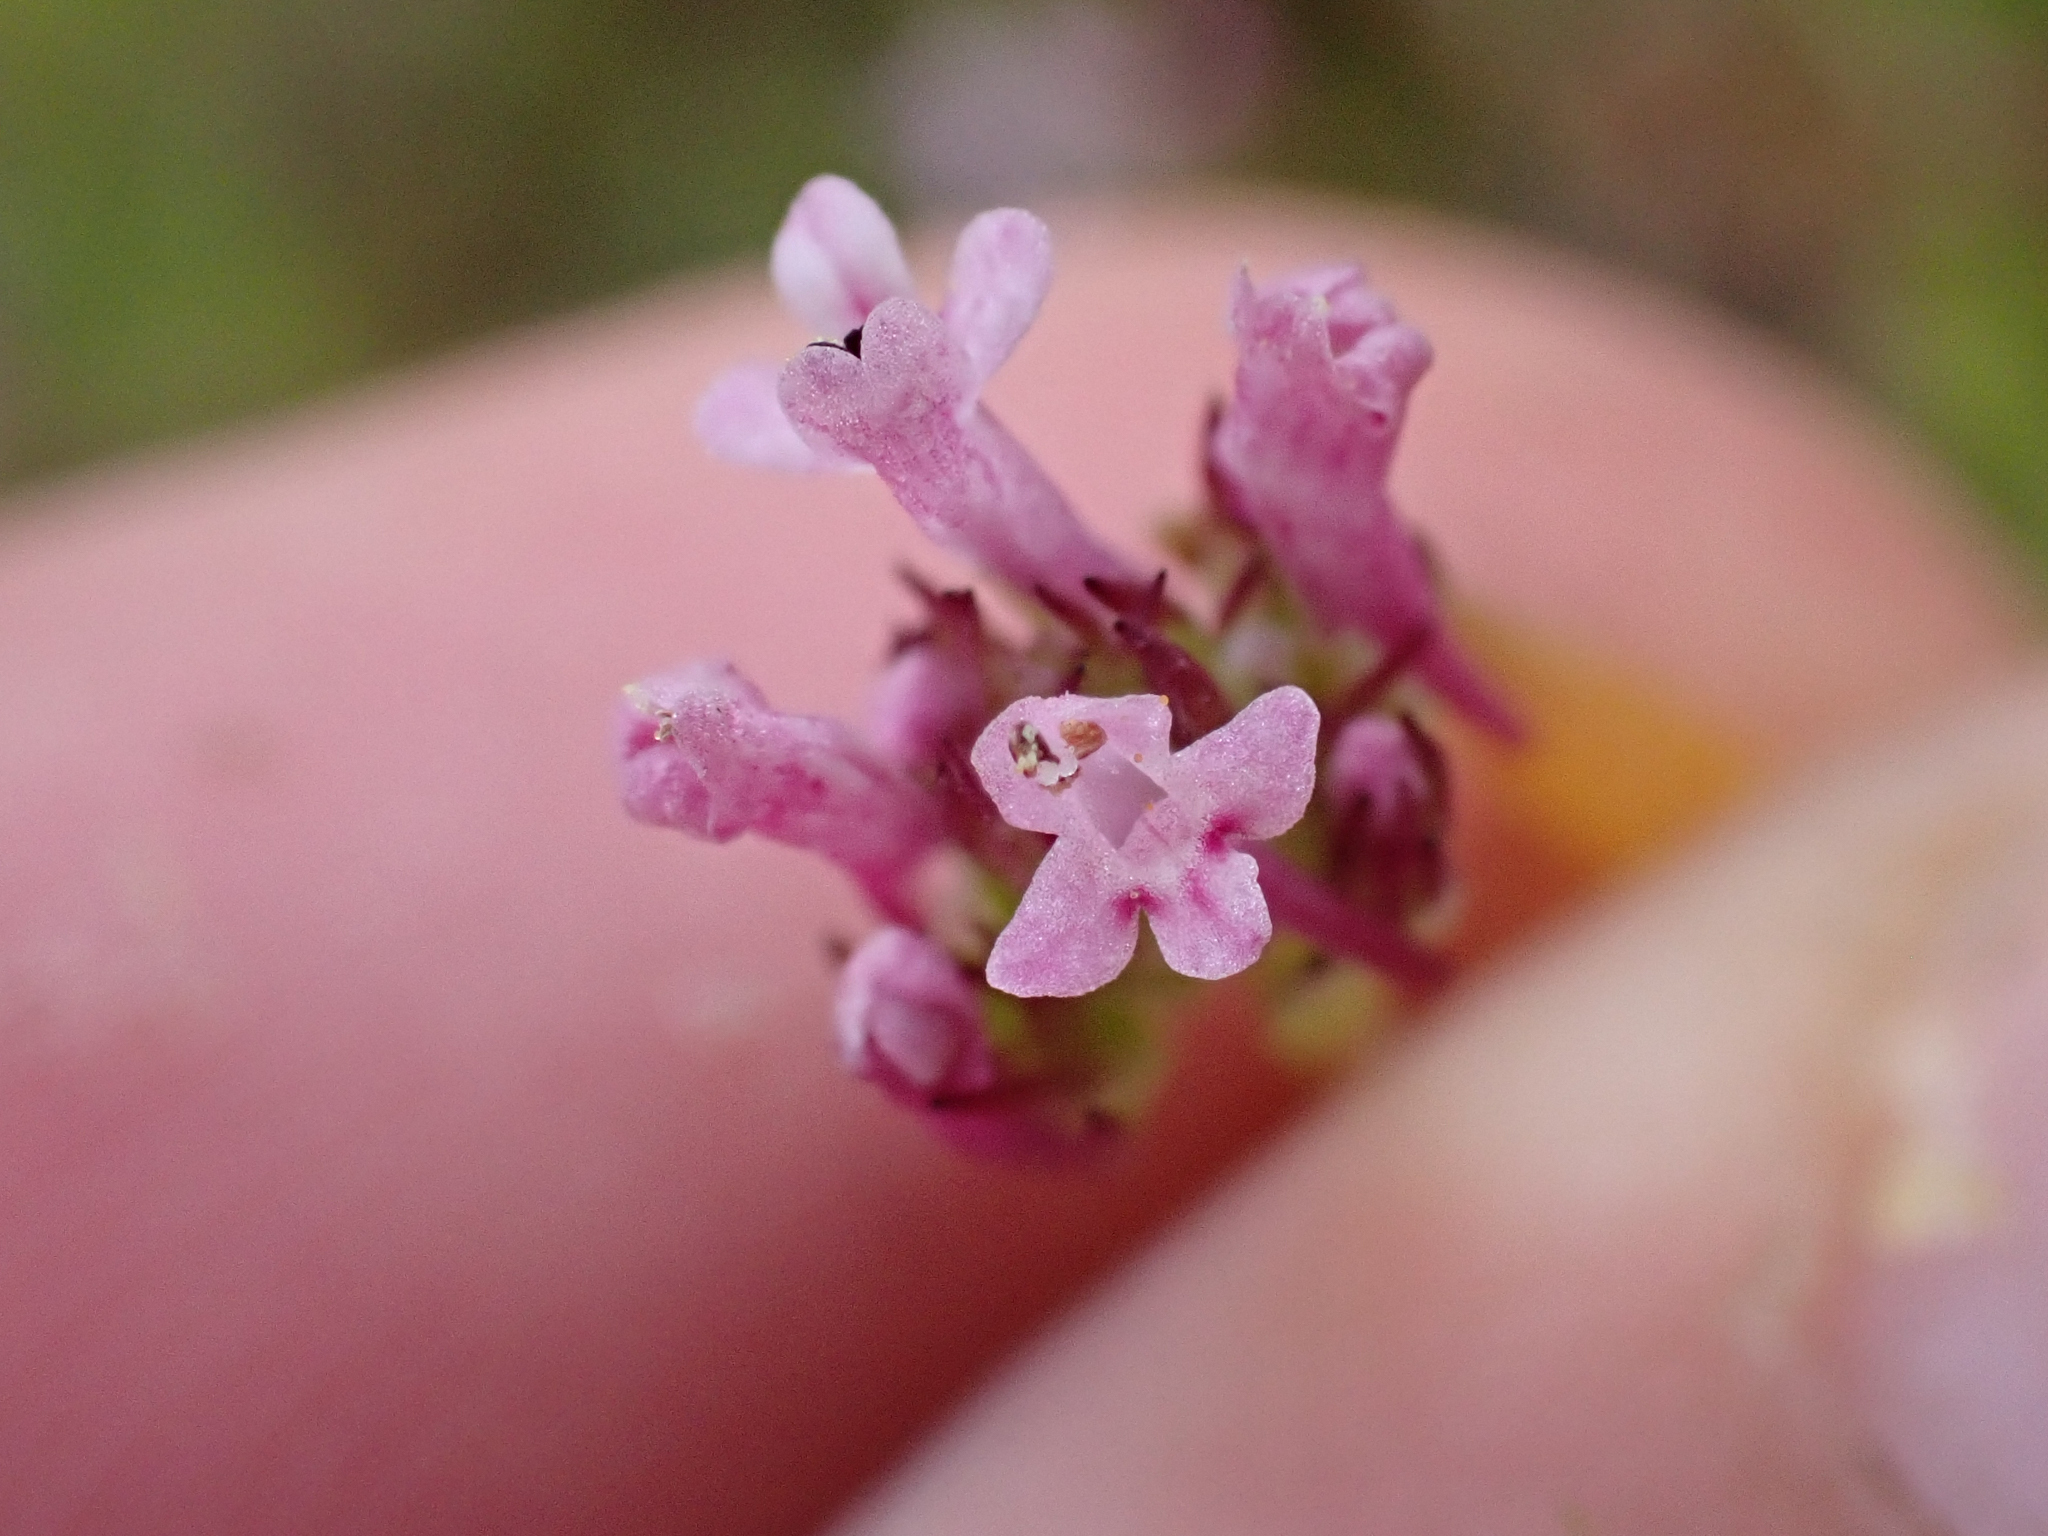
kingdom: Plantae
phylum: Tracheophyta
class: Magnoliopsida
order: Dipsacales
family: Caprifoliaceae
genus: Plectritis
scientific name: Plectritis ciliosa
